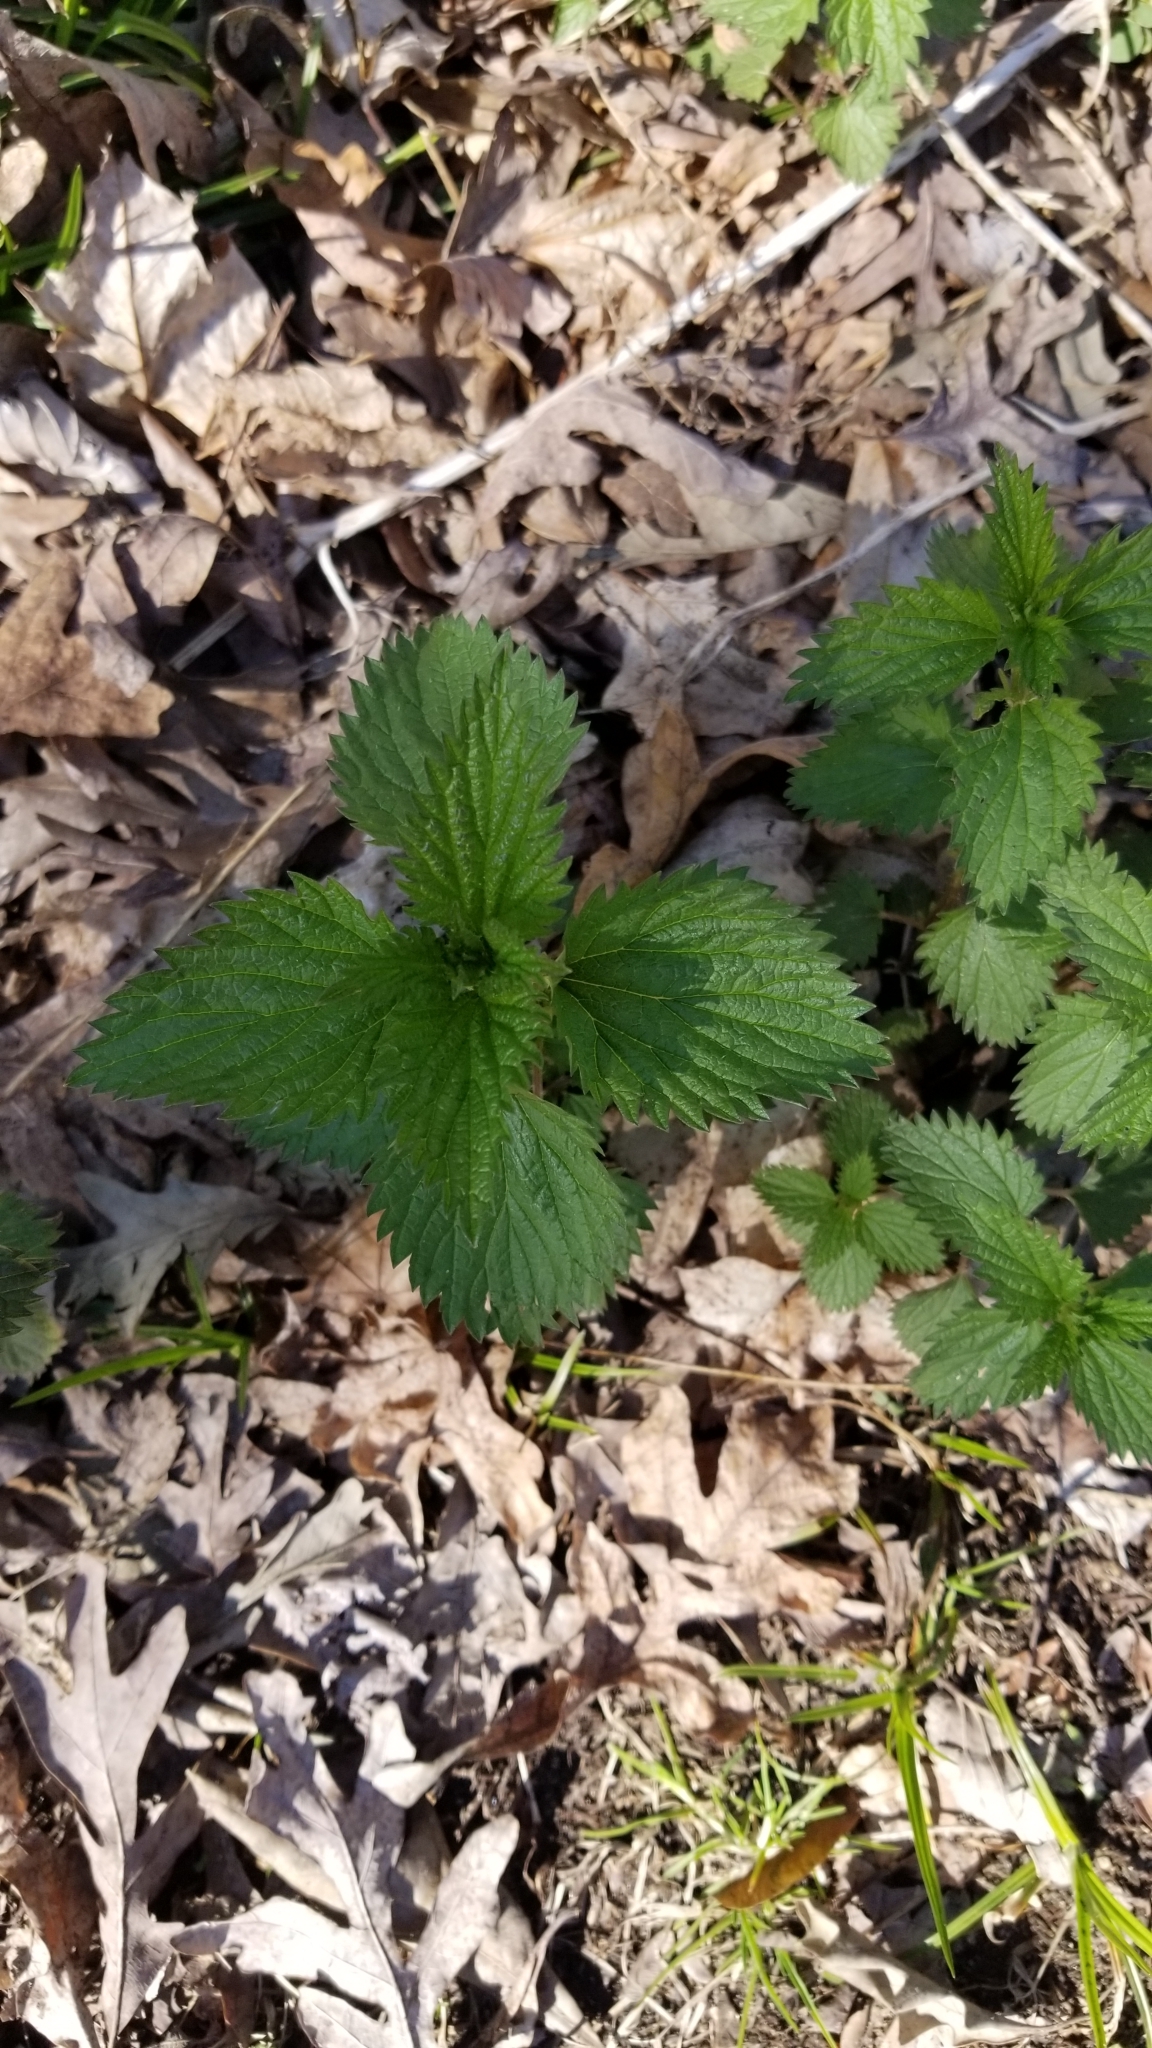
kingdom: Plantae
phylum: Tracheophyta
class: Magnoliopsida
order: Rosales
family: Urticaceae
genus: Urtica
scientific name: Urtica dioica
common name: Common nettle
